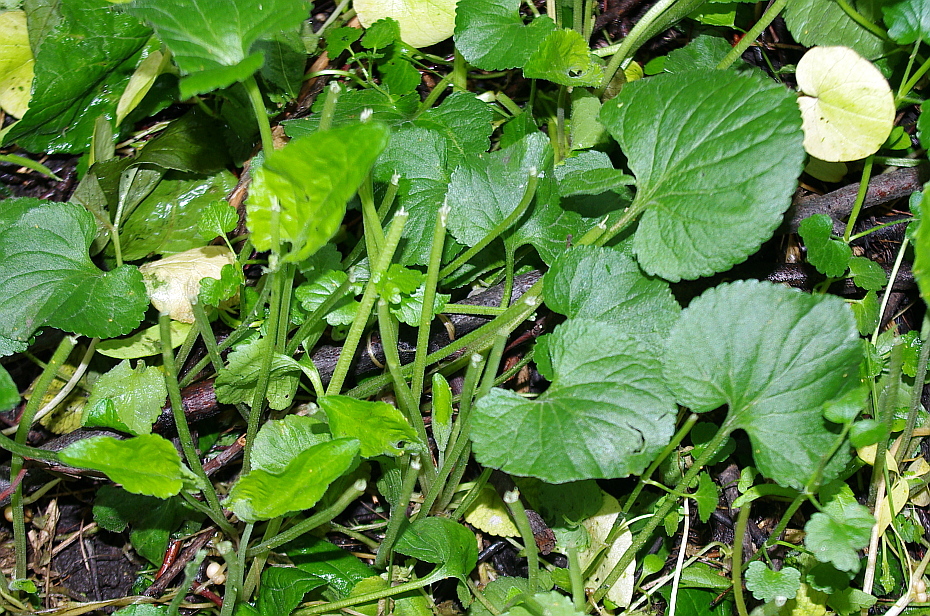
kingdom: Plantae
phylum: Tracheophyta
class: Magnoliopsida
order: Malpighiales
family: Violaceae
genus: Viola
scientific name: Viola odorata
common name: Sweet violet
